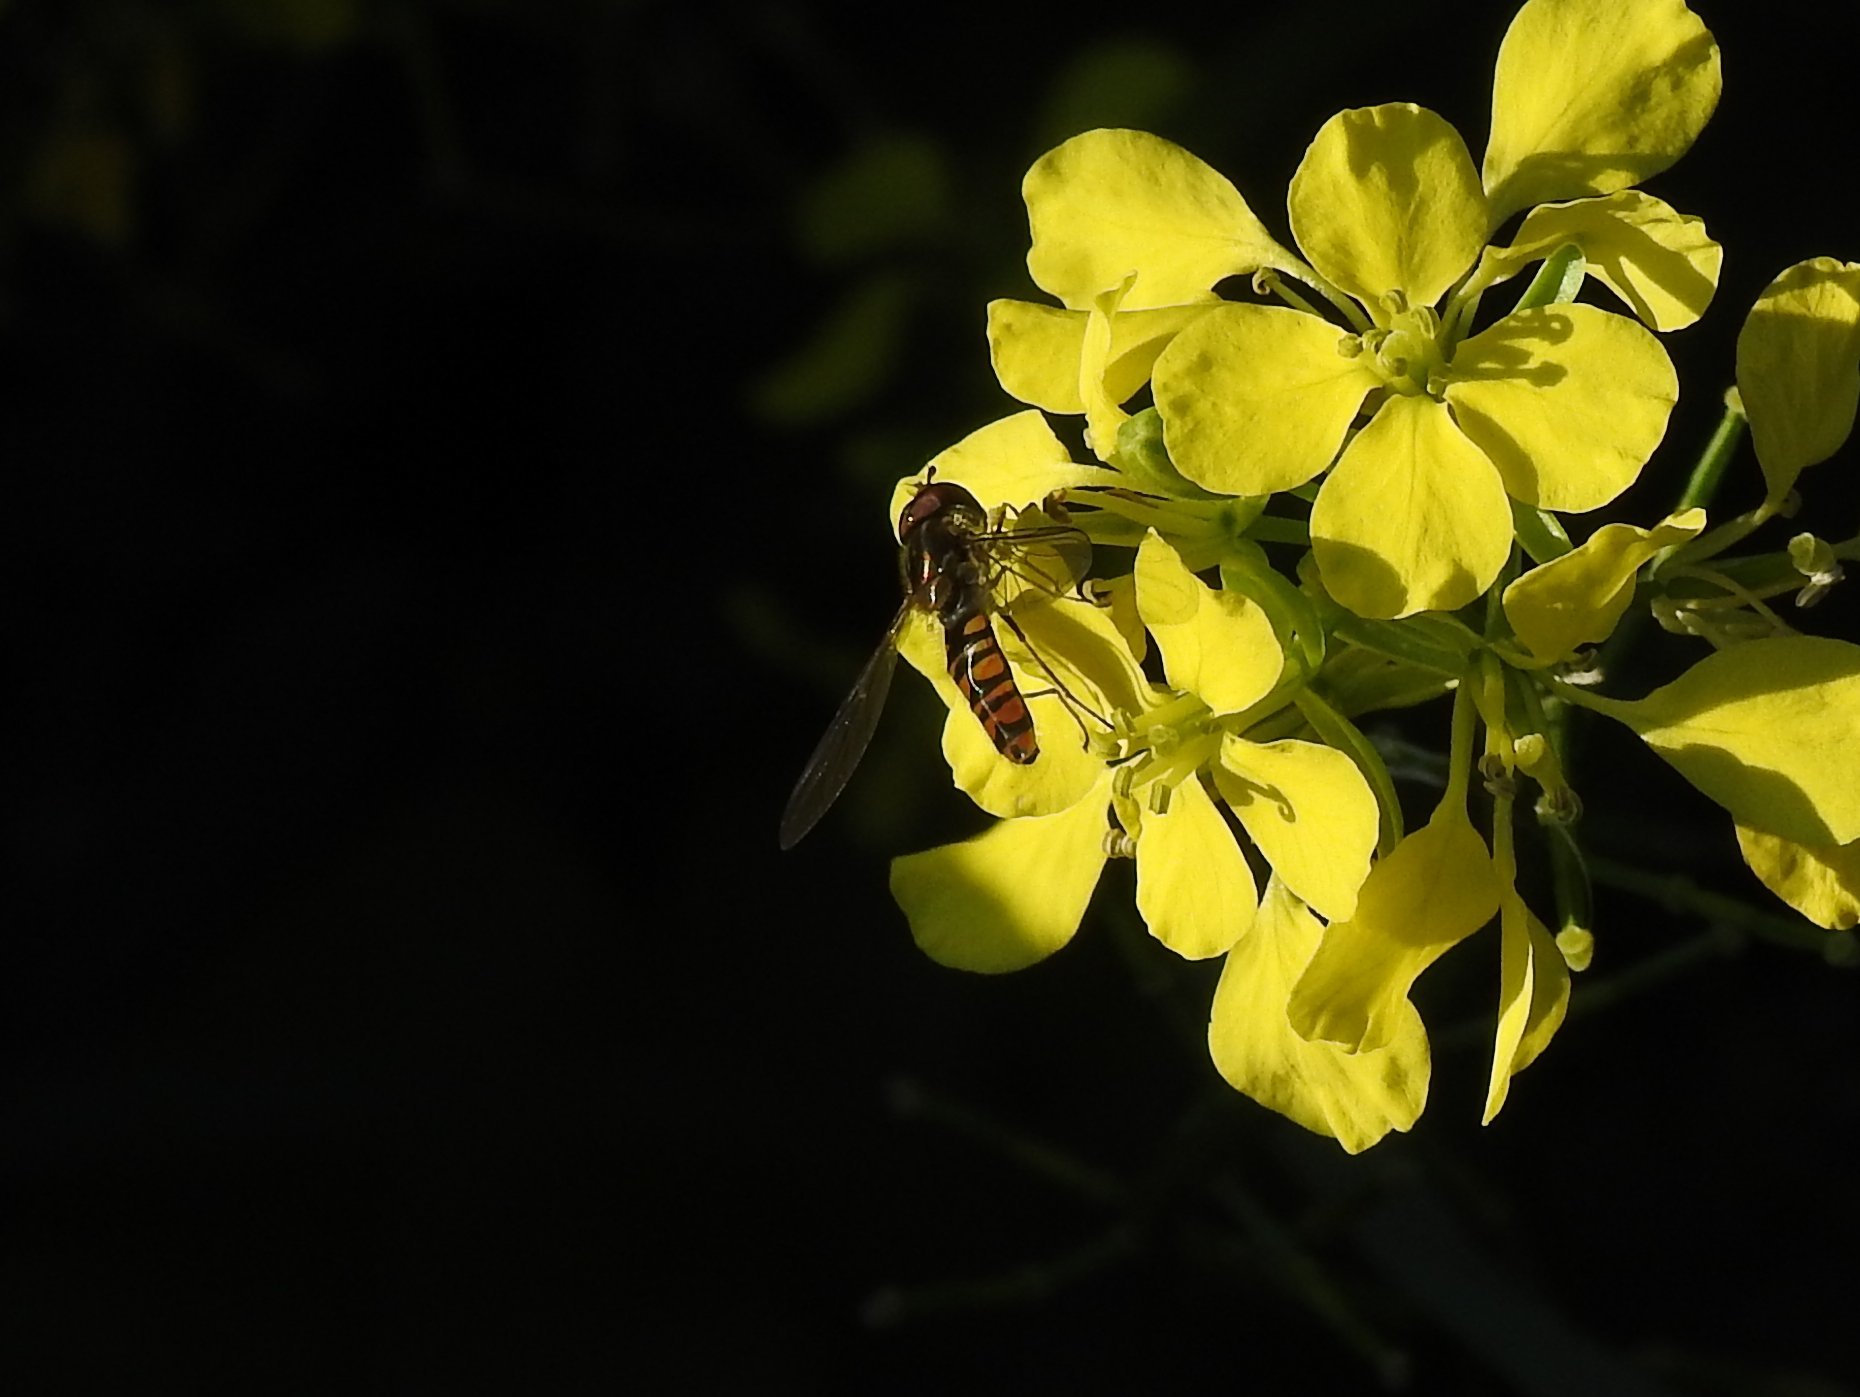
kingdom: Animalia
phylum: Arthropoda
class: Insecta
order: Diptera
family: Syrphidae
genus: Episyrphus
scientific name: Episyrphus balteatus
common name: Marmalade hoverfly
